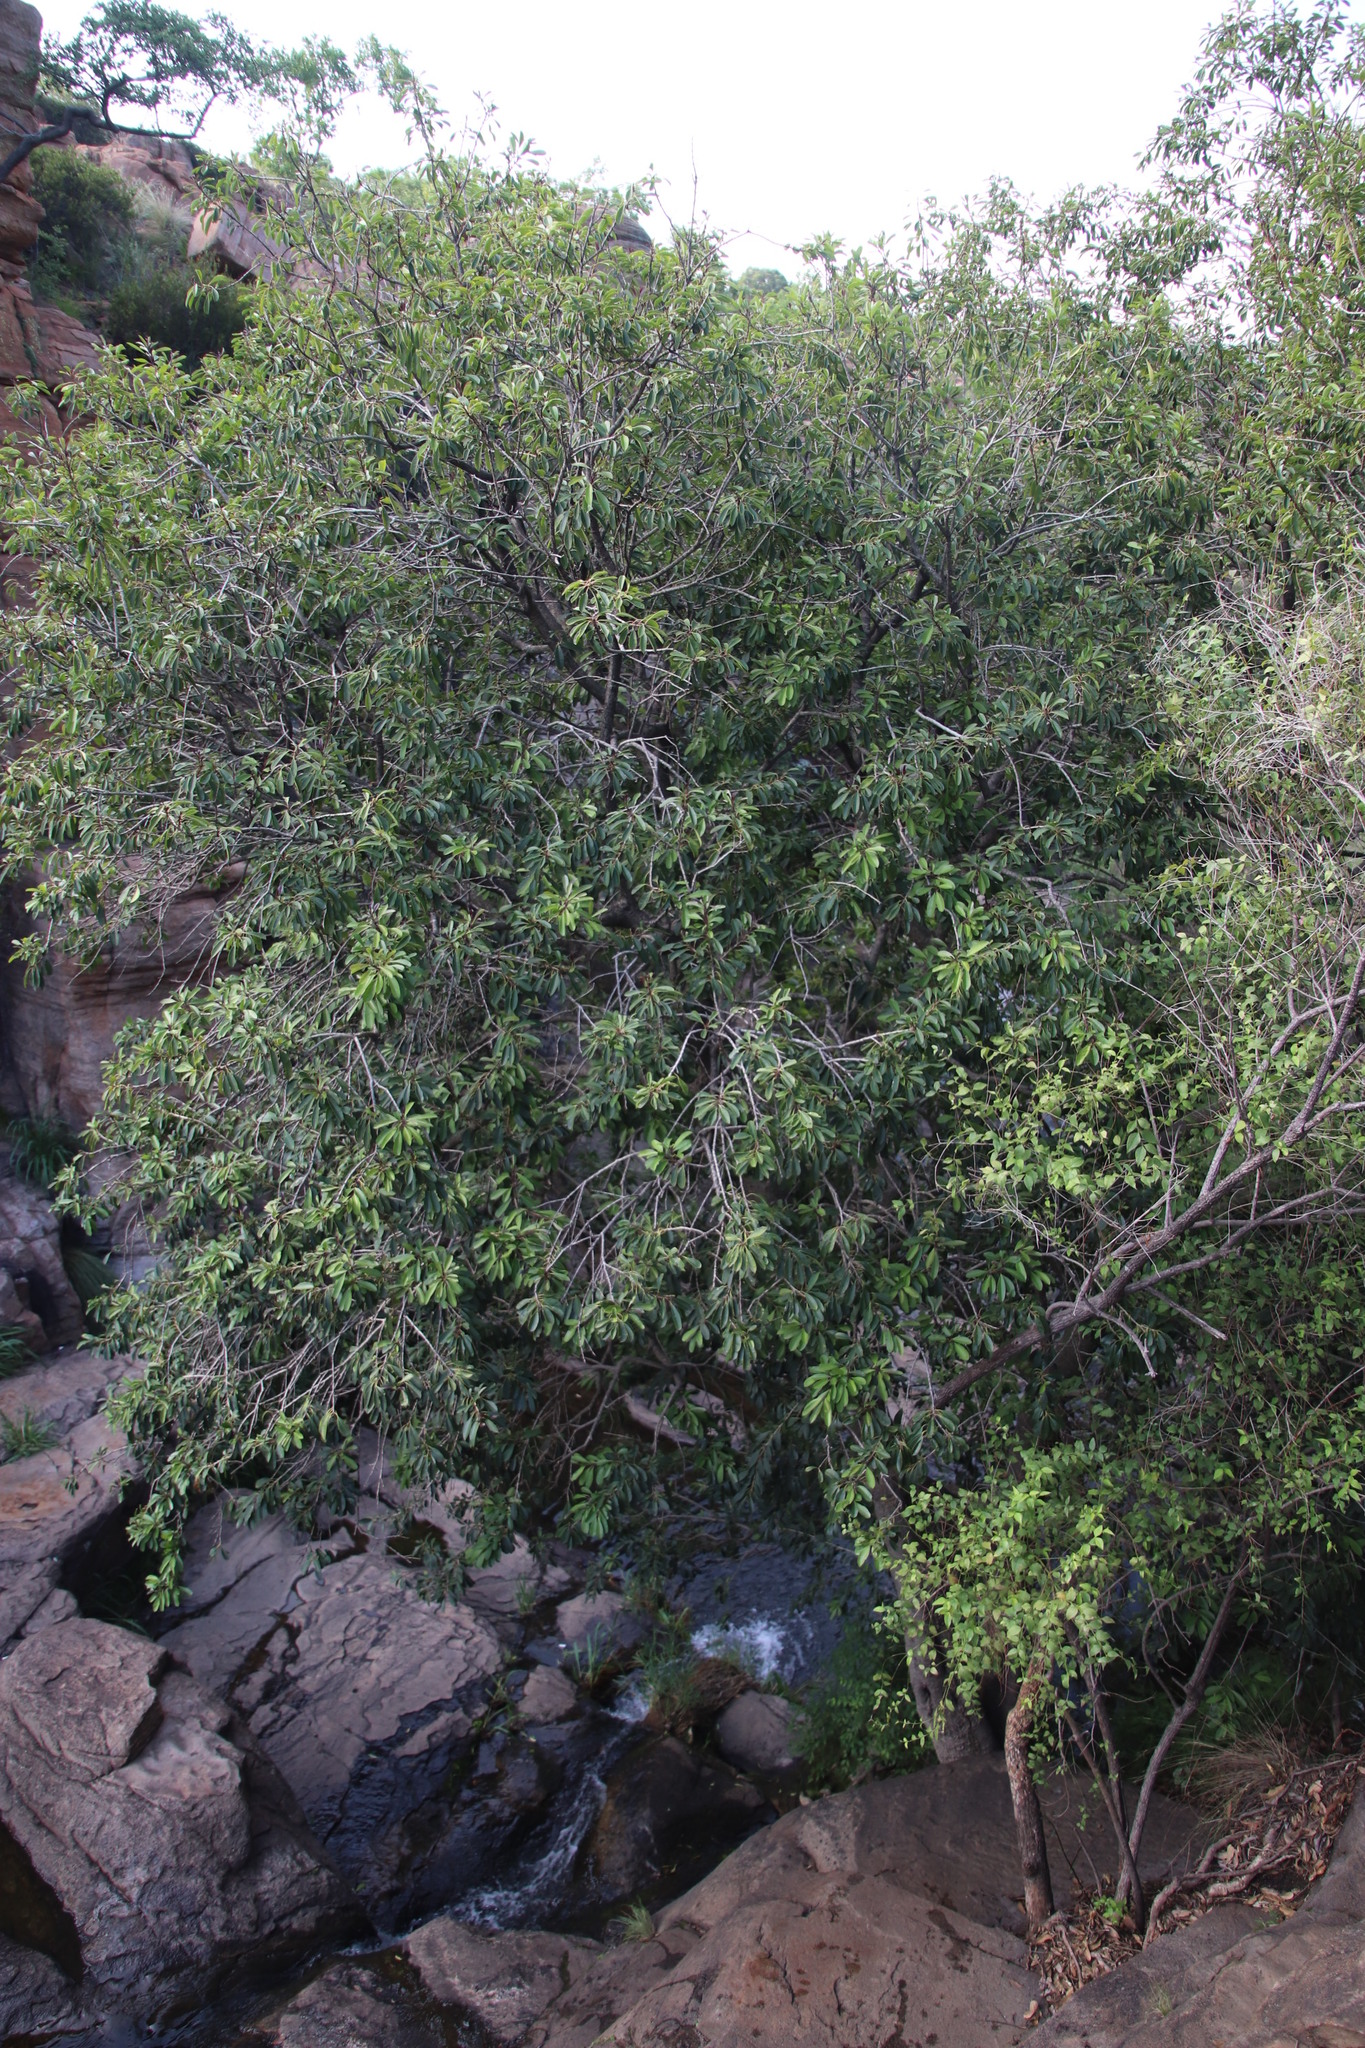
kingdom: Plantae
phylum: Tracheophyta
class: Magnoliopsida
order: Ericales
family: Sapotaceae
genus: Mimusops
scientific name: Mimusops zeyheri
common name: Transvaal red milkwood
